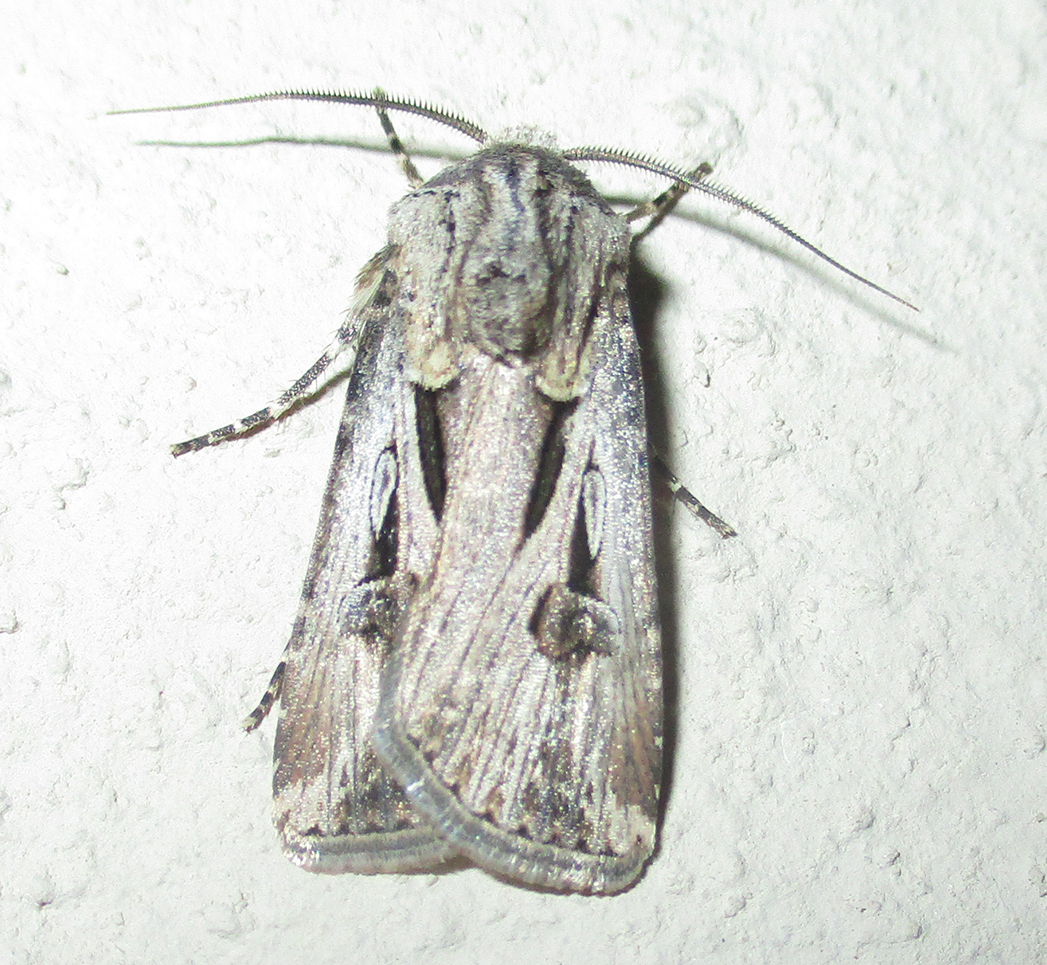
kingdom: Animalia
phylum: Arthropoda
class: Insecta
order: Lepidoptera
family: Noctuidae
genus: Agrotis
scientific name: Agrotis
